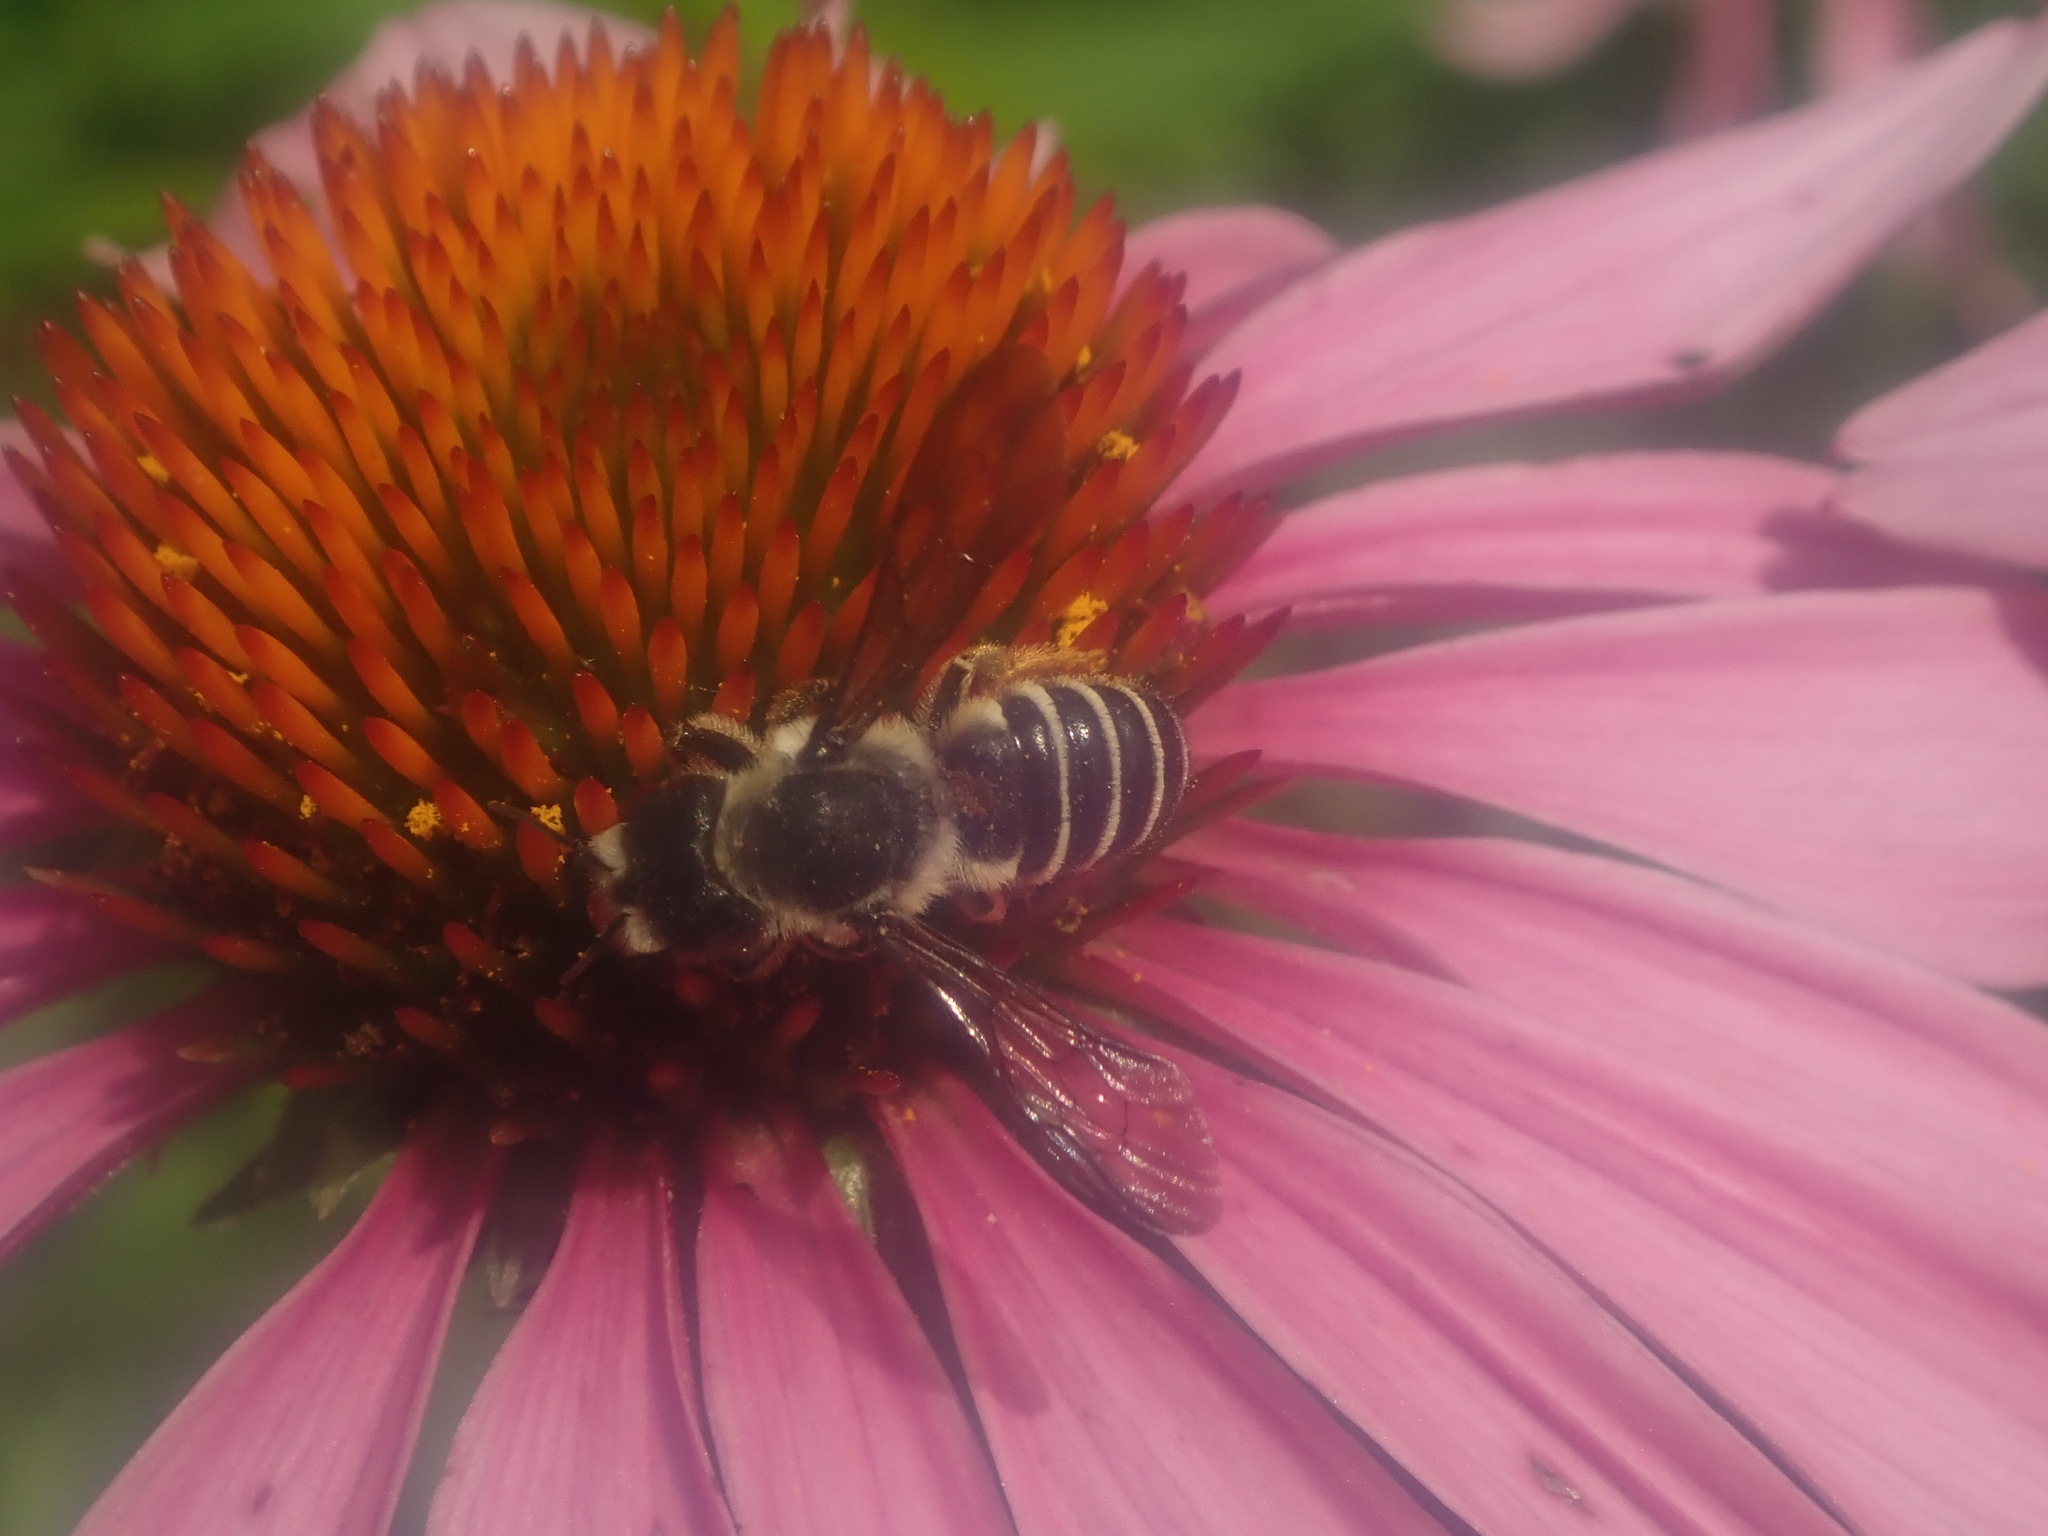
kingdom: Animalia
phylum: Arthropoda
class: Insecta
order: Hymenoptera
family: Megachilidae
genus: Megachile
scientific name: Megachile pugnata
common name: Pugnacious leafcutter bee
